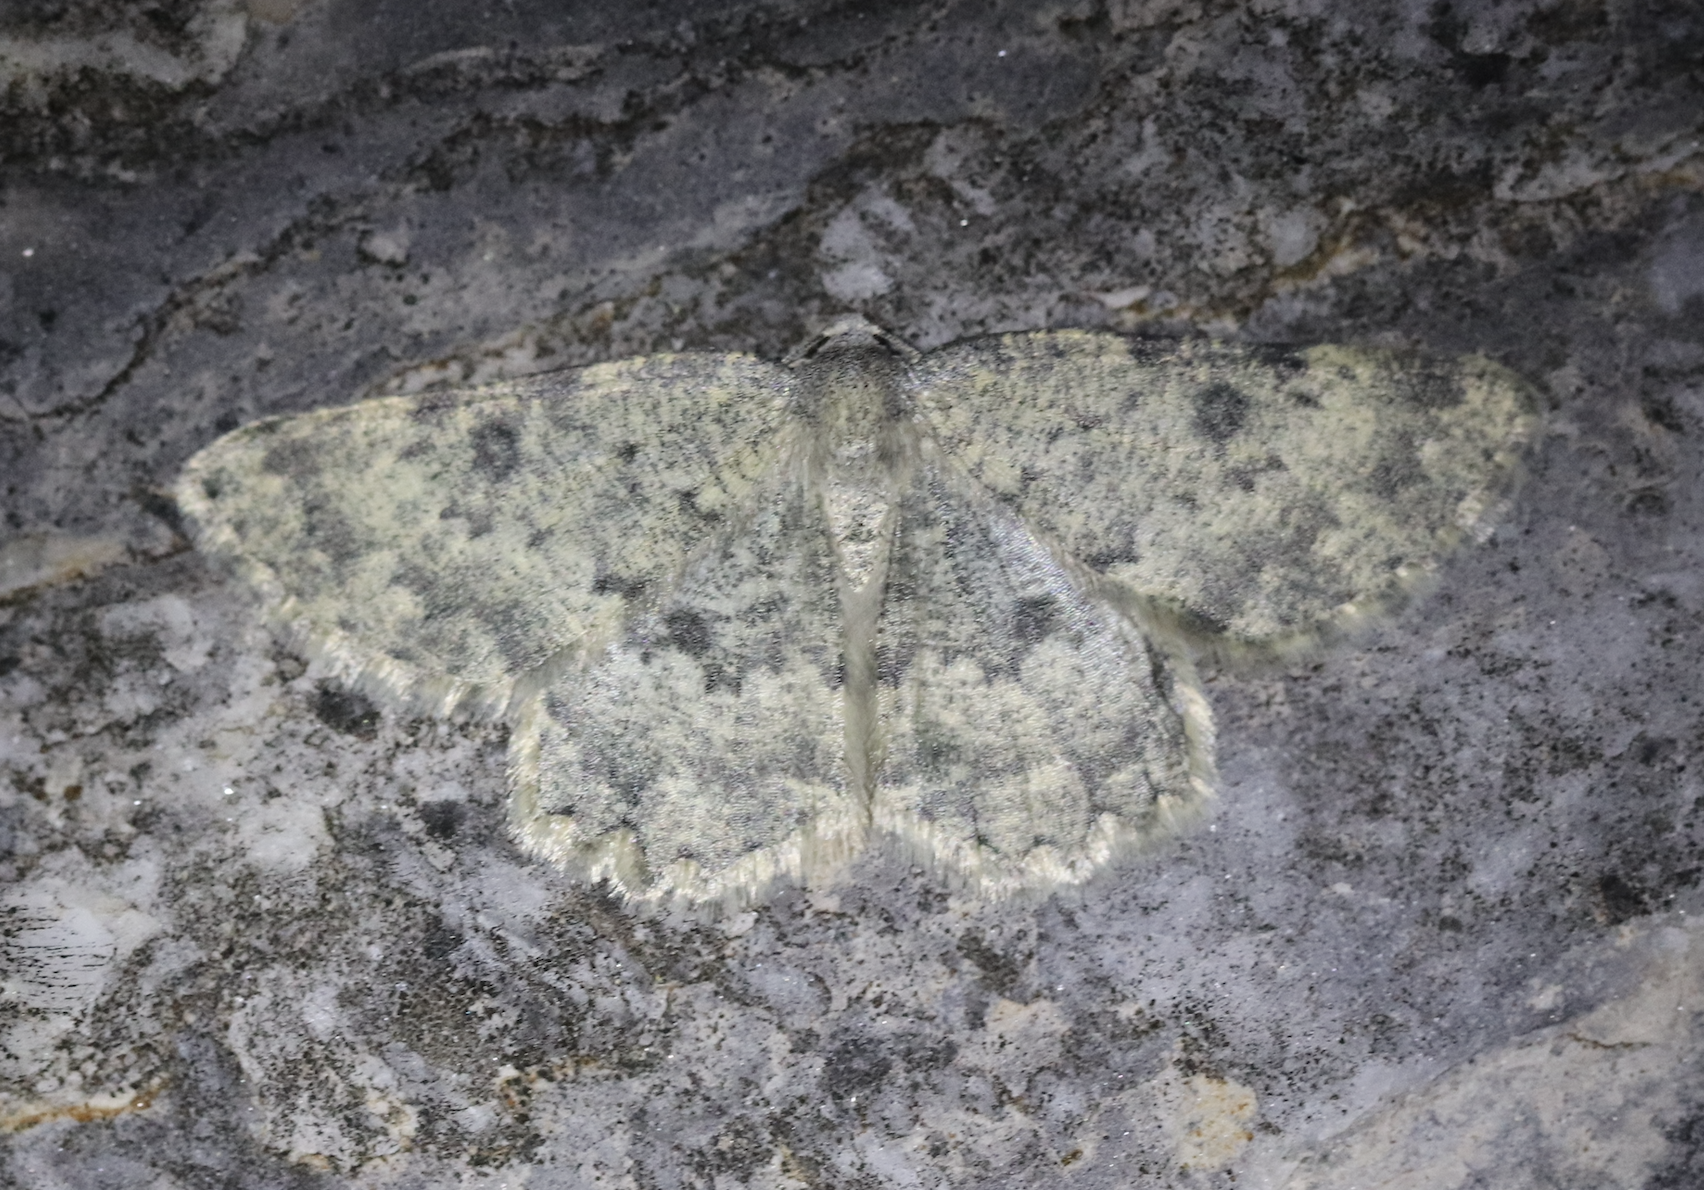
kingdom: Animalia
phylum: Arthropoda
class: Insecta
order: Lepidoptera
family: Geometridae
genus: Charissa
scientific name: Charissa glaucinaria
